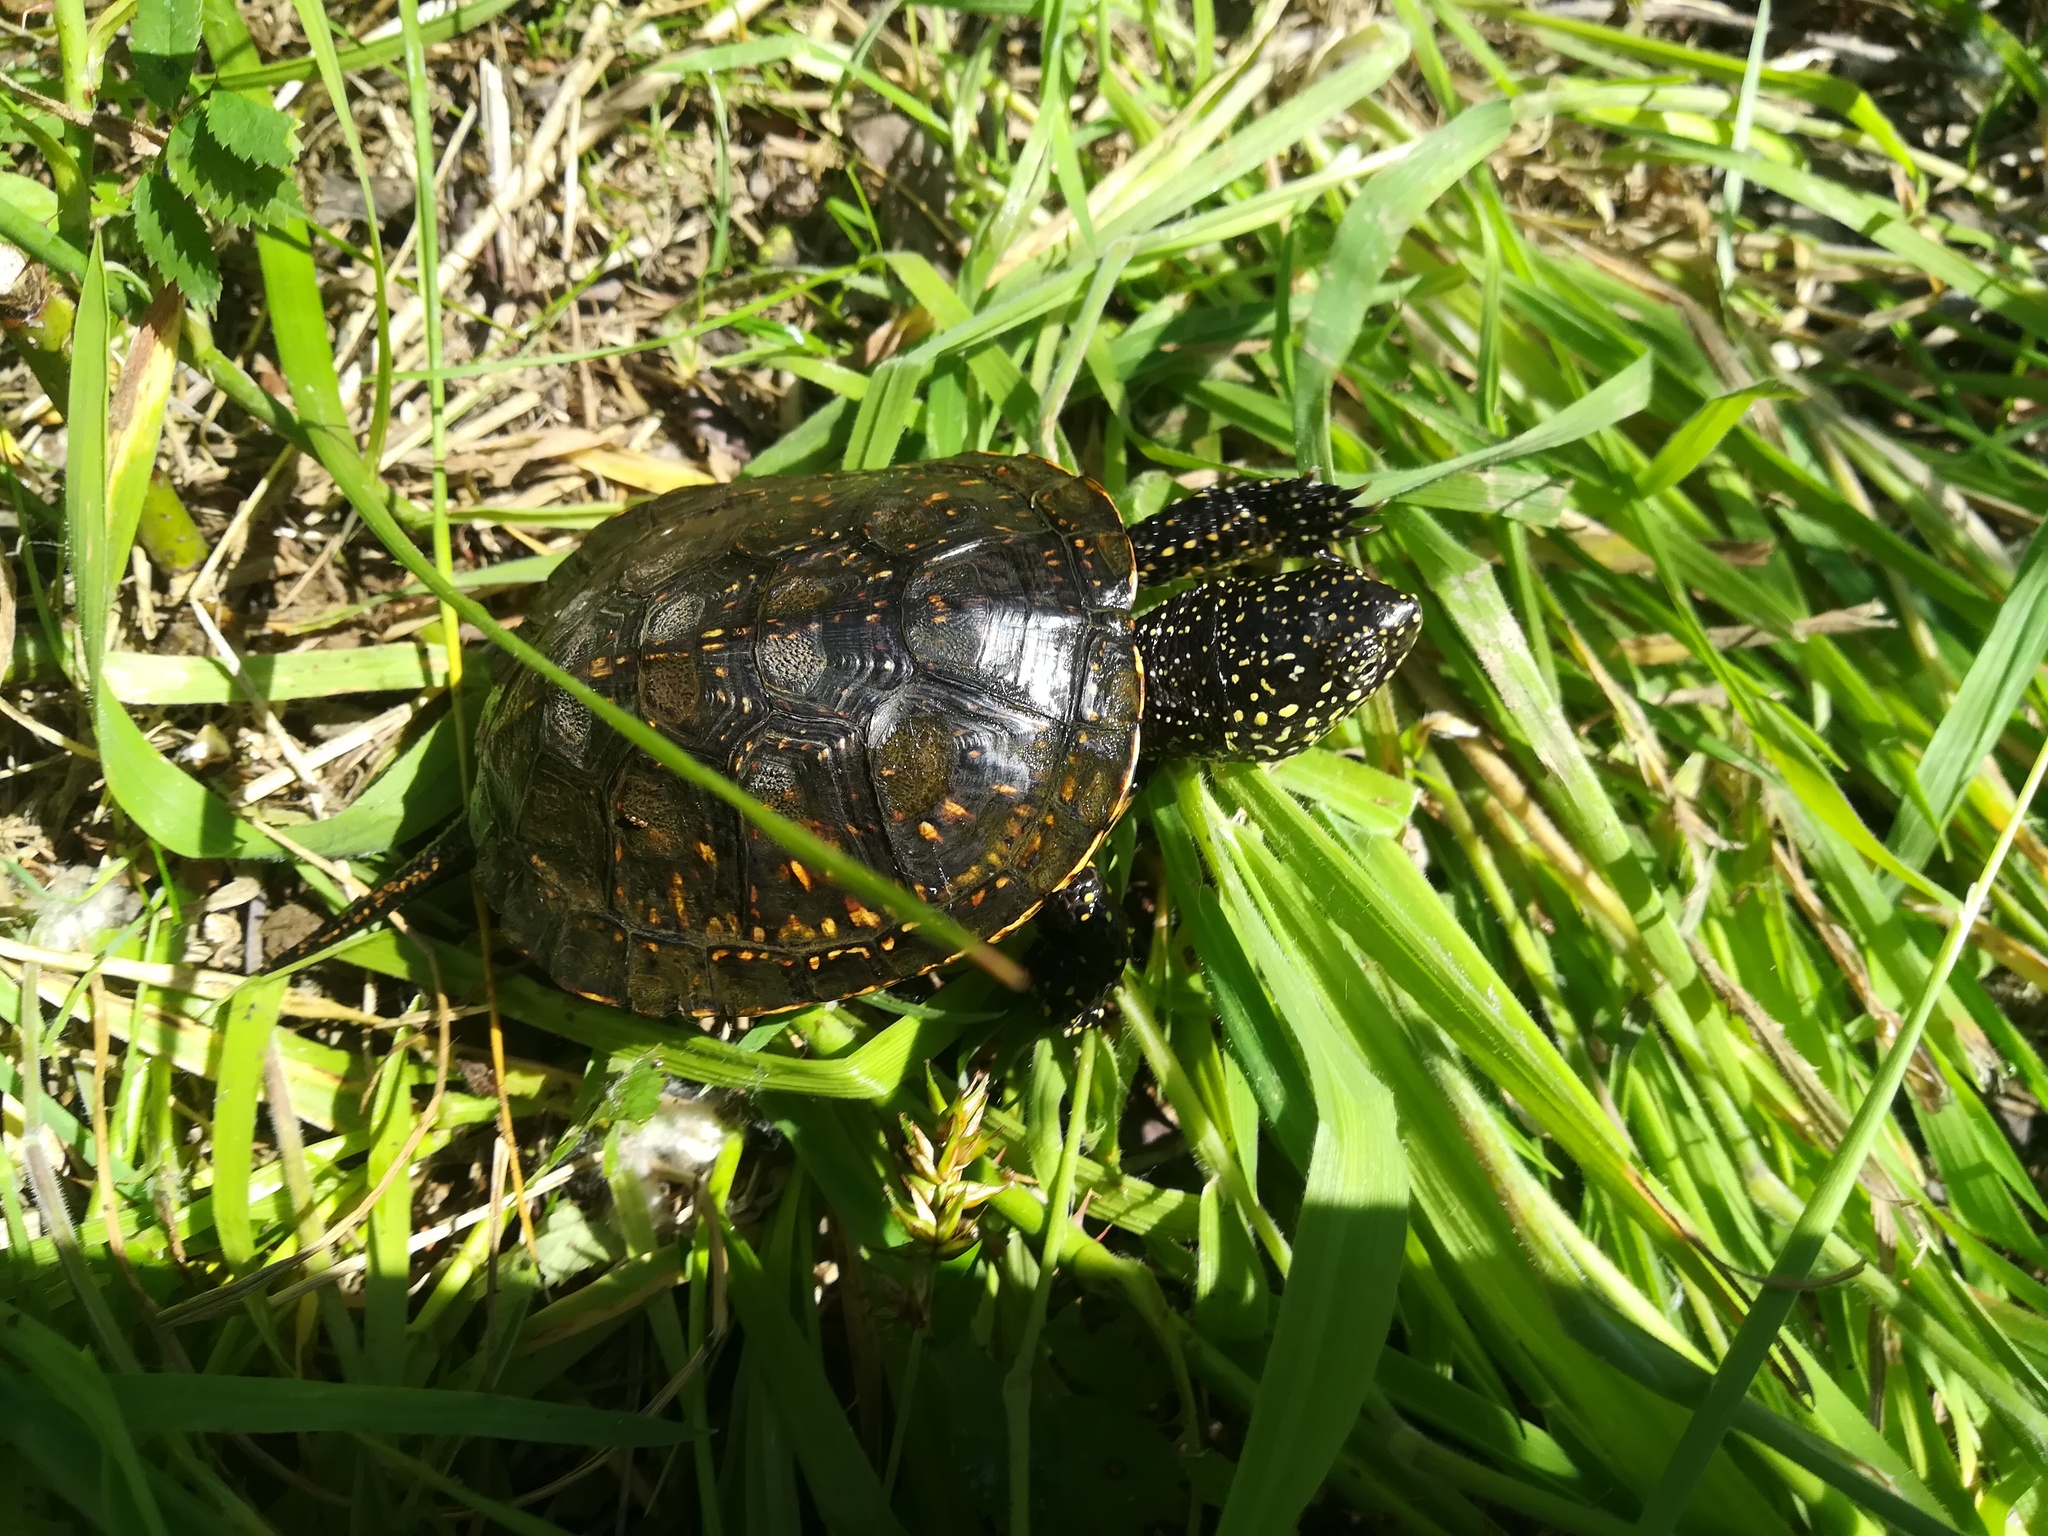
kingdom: Animalia
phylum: Chordata
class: Testudines
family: Emydidae
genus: Emys
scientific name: Emys orbicularis
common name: European pond turtle
